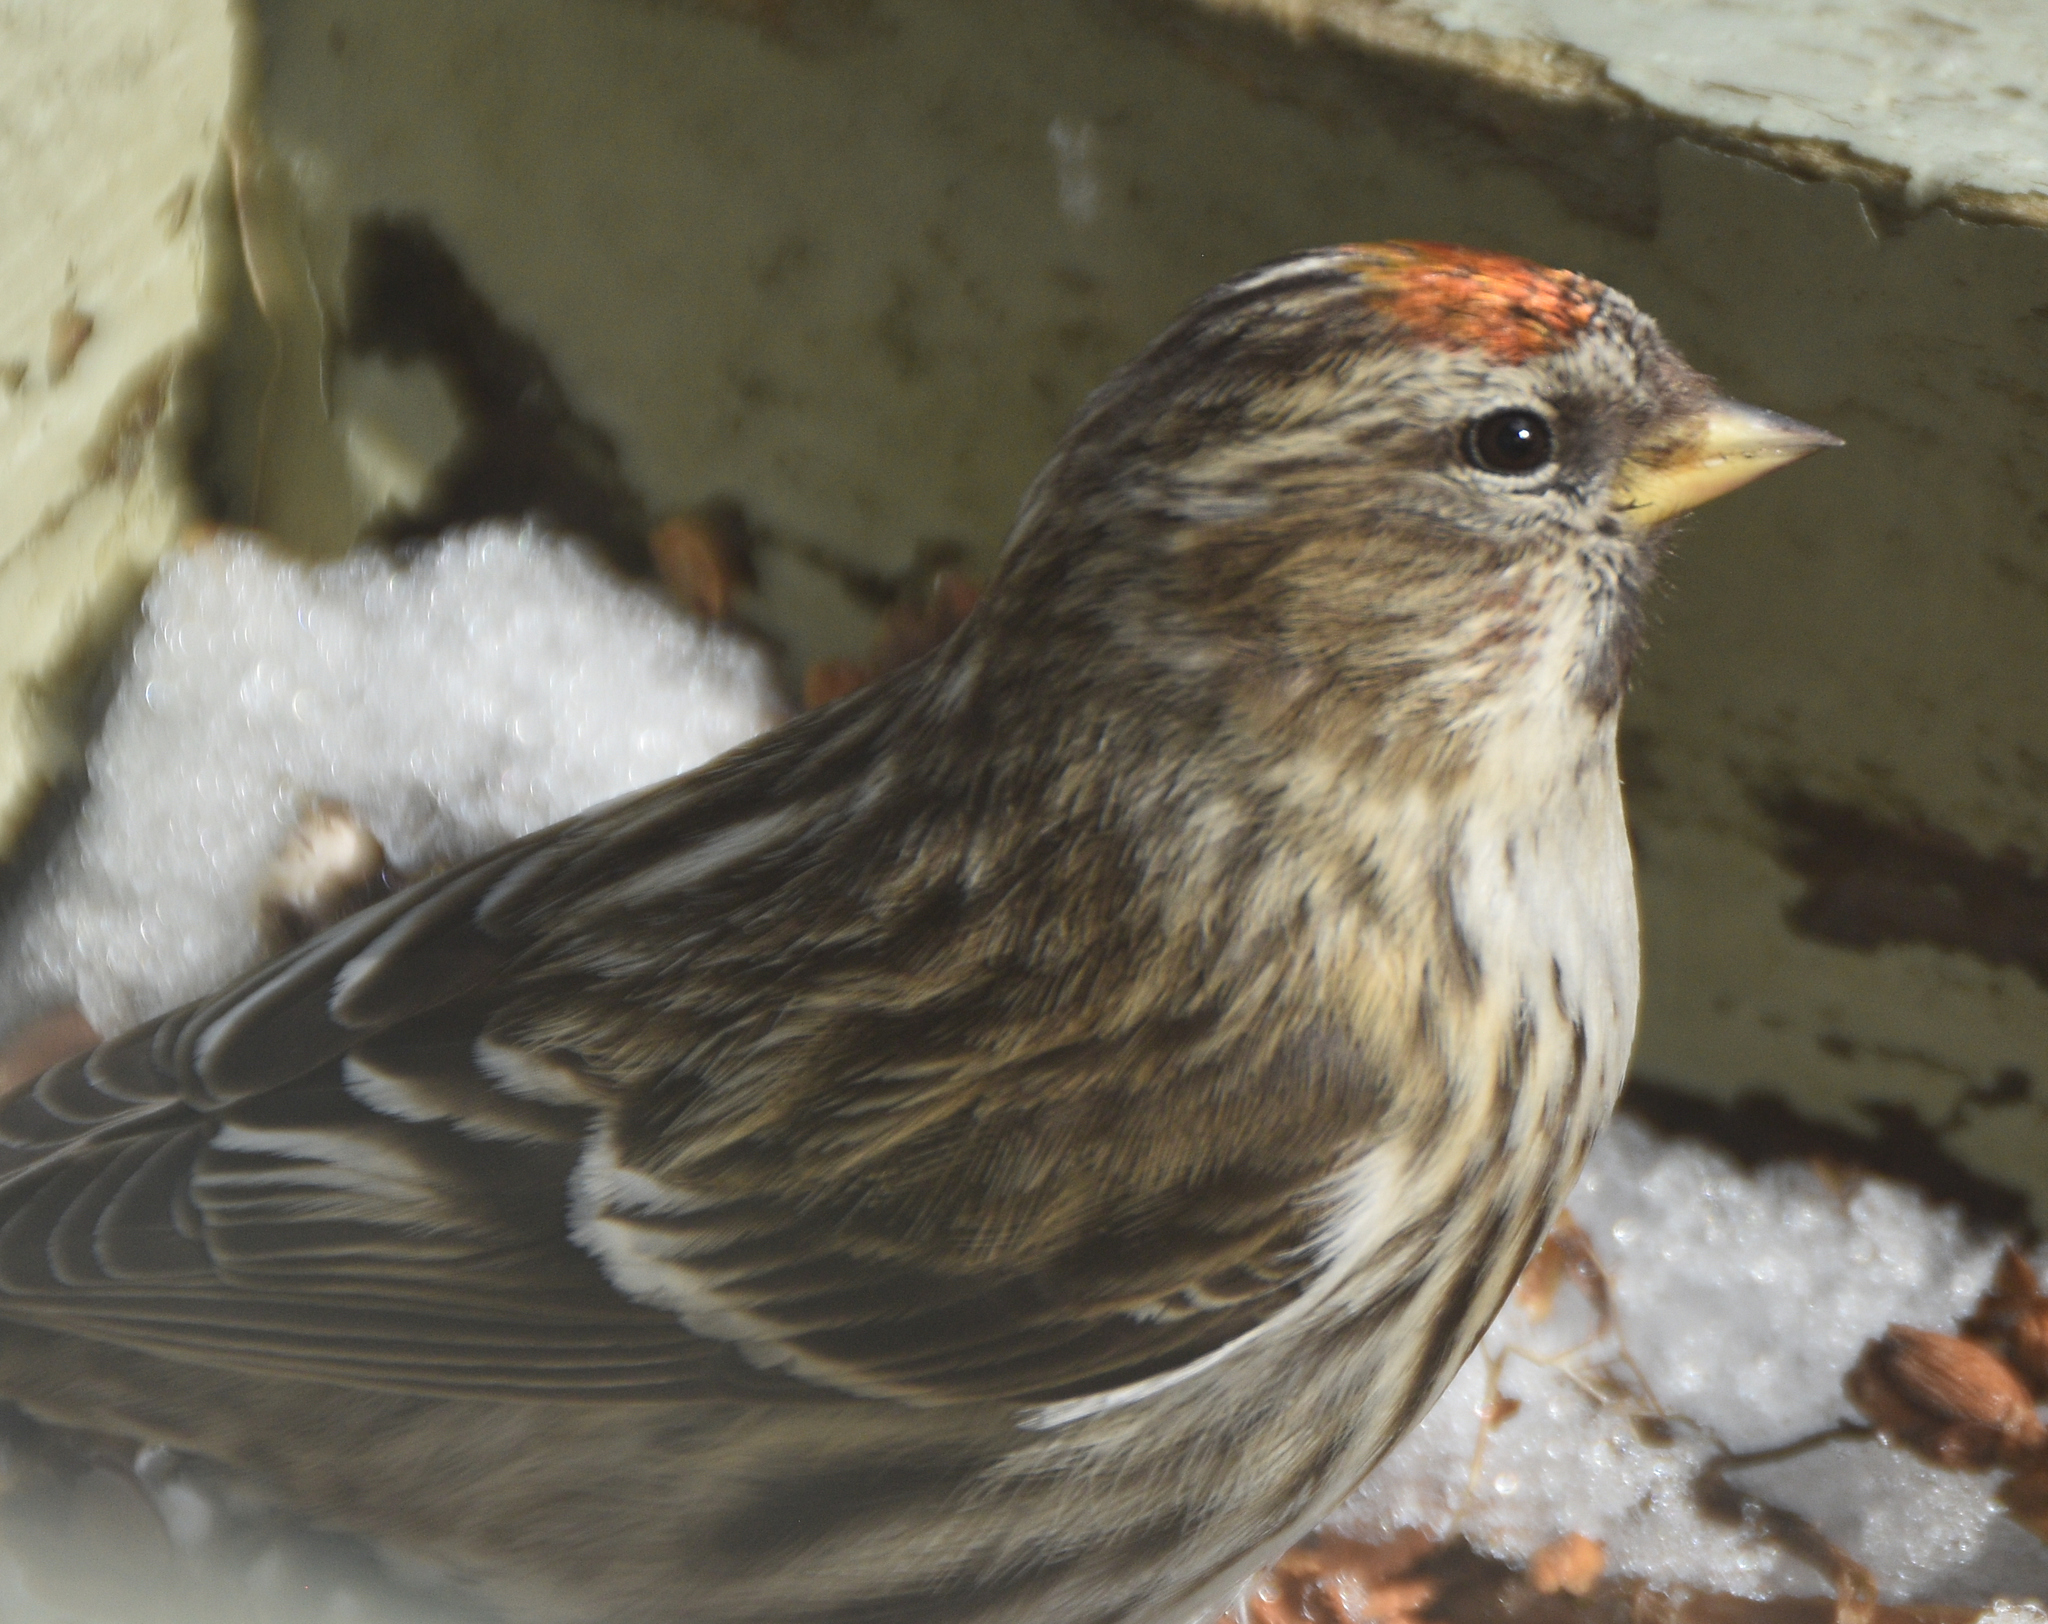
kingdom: Animalia
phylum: Chordata
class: Aves
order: Passeriformes
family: Fringillidae
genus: Acanthis
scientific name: Acanthis flammea
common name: Common redpoll
